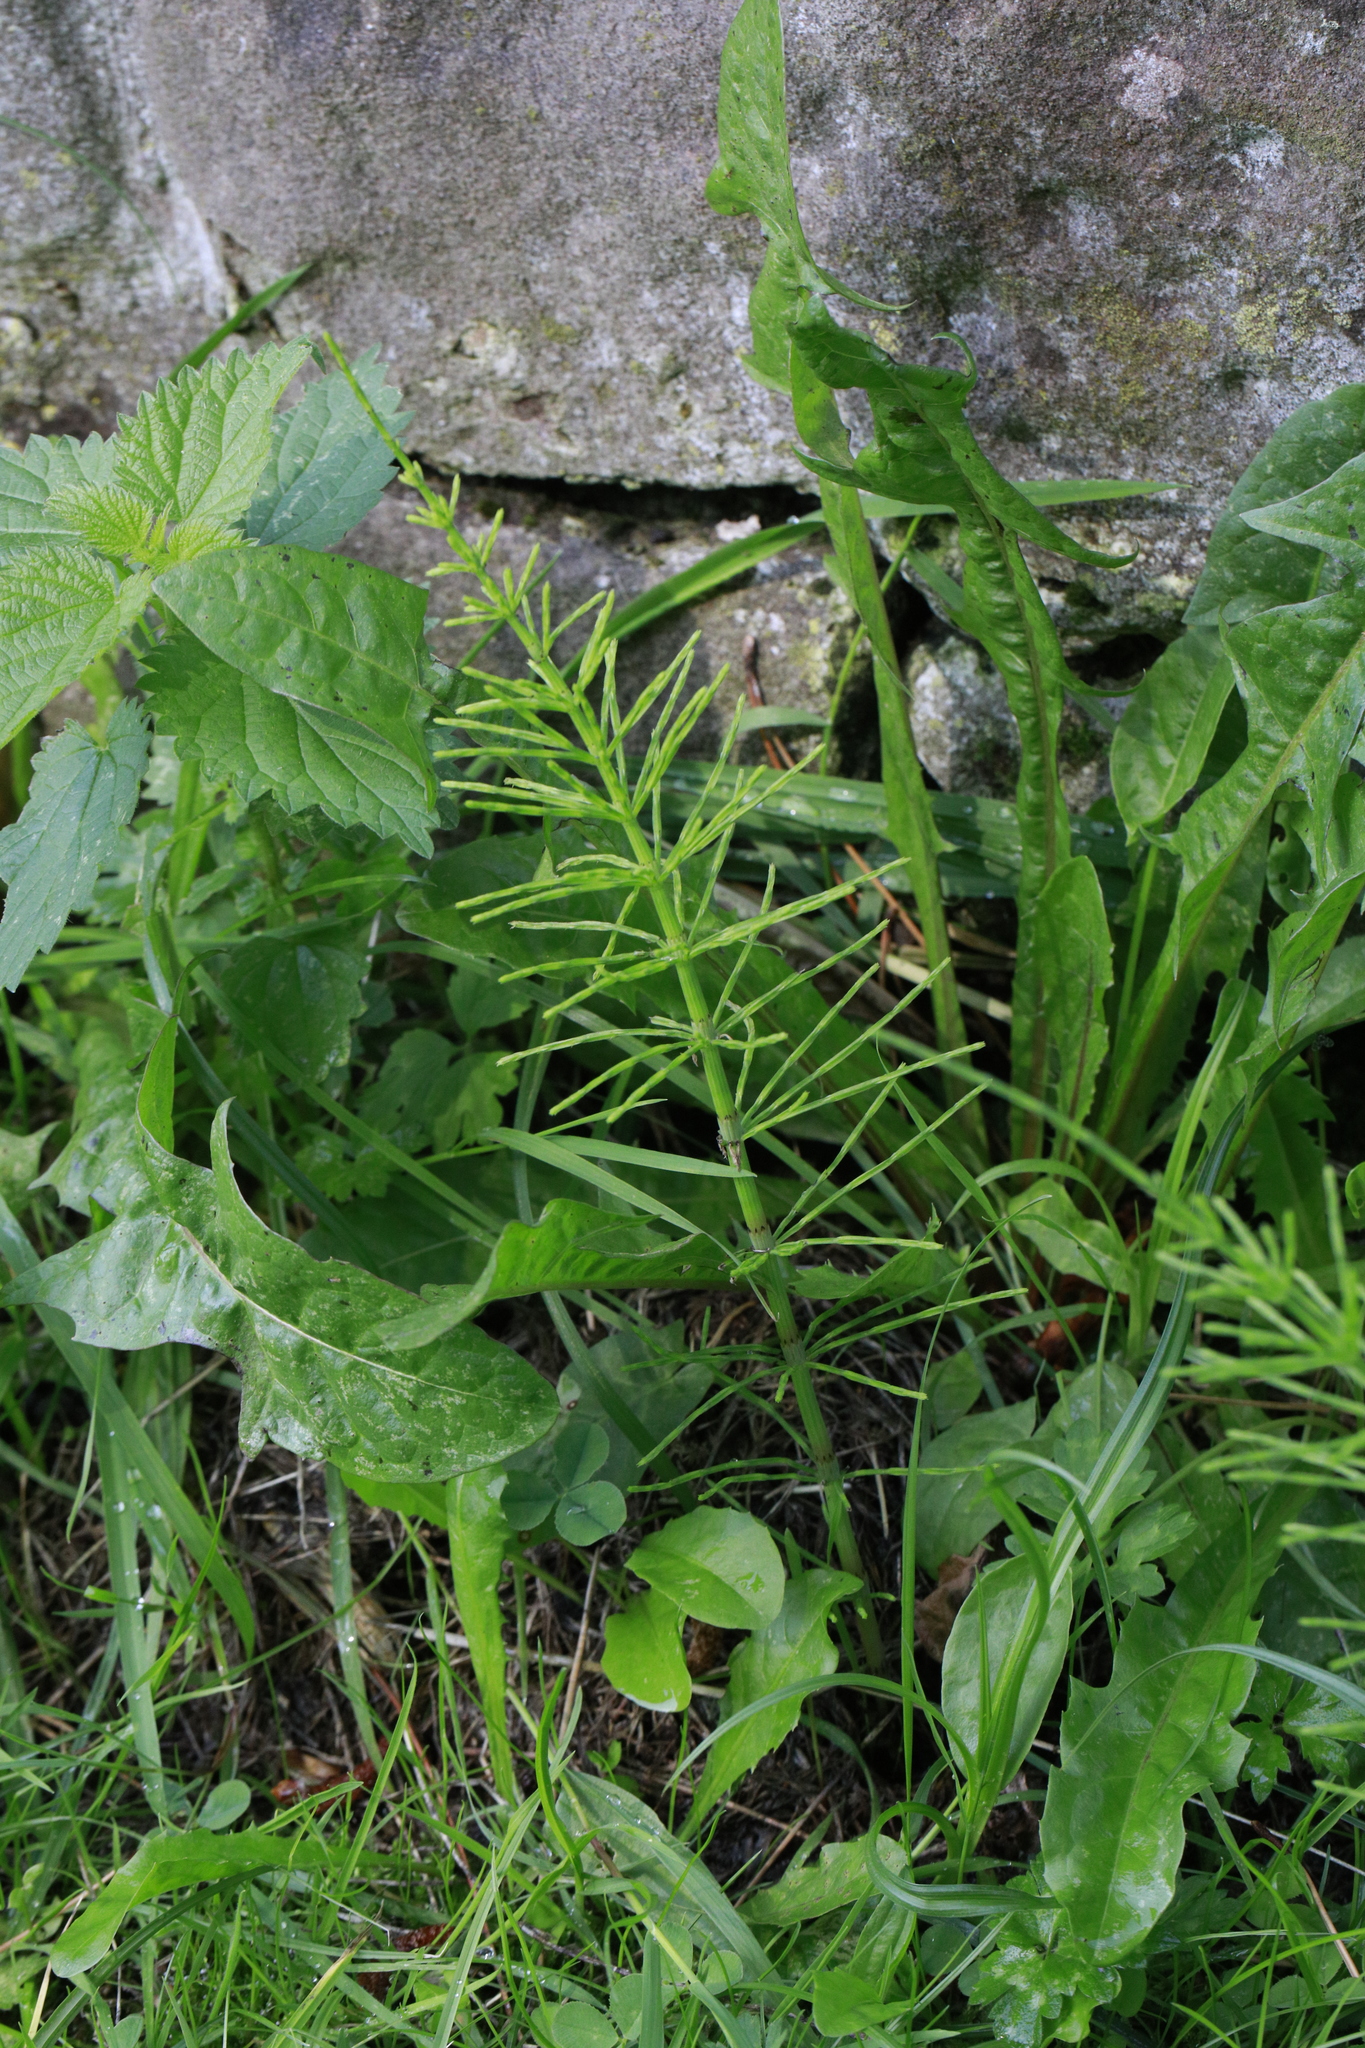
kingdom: Plantae
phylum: Tracheophyta
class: Polypodiopsida
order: Equisetales
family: Equisetaceae
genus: Equisetum
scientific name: Equisetum arvense
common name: Field horsetail
